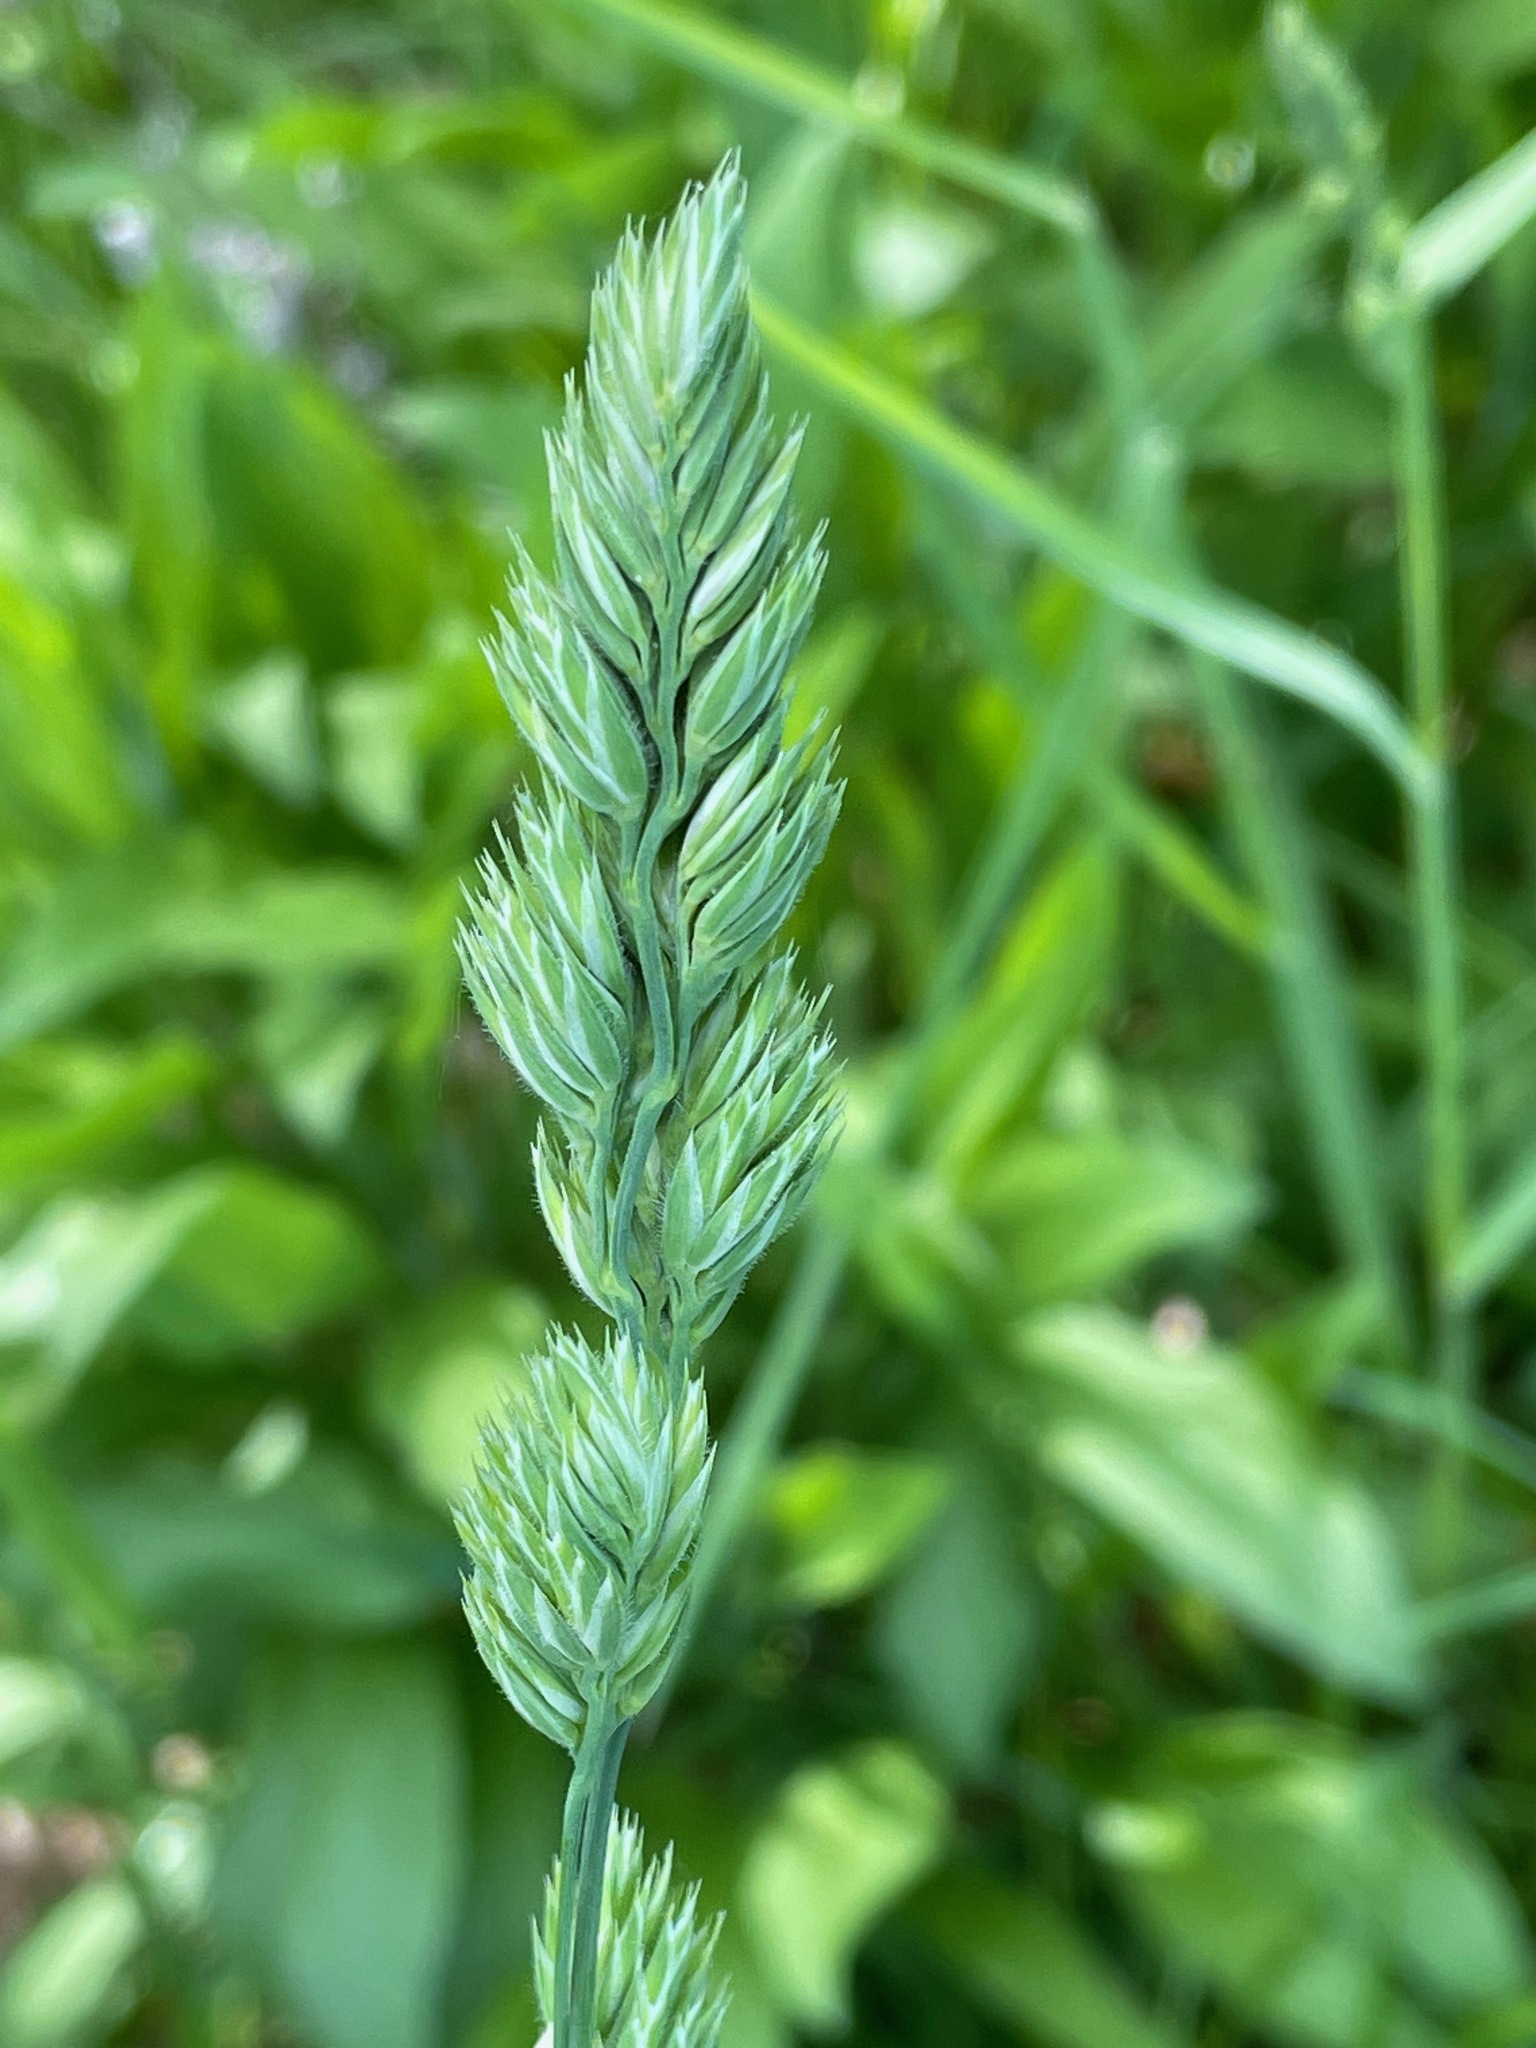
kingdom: Plantae
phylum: Tracheophyta
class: Liliopsida
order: Poales
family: Poaceae
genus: Dactylis
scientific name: Dactylis glomerata
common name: Orchardgrass
